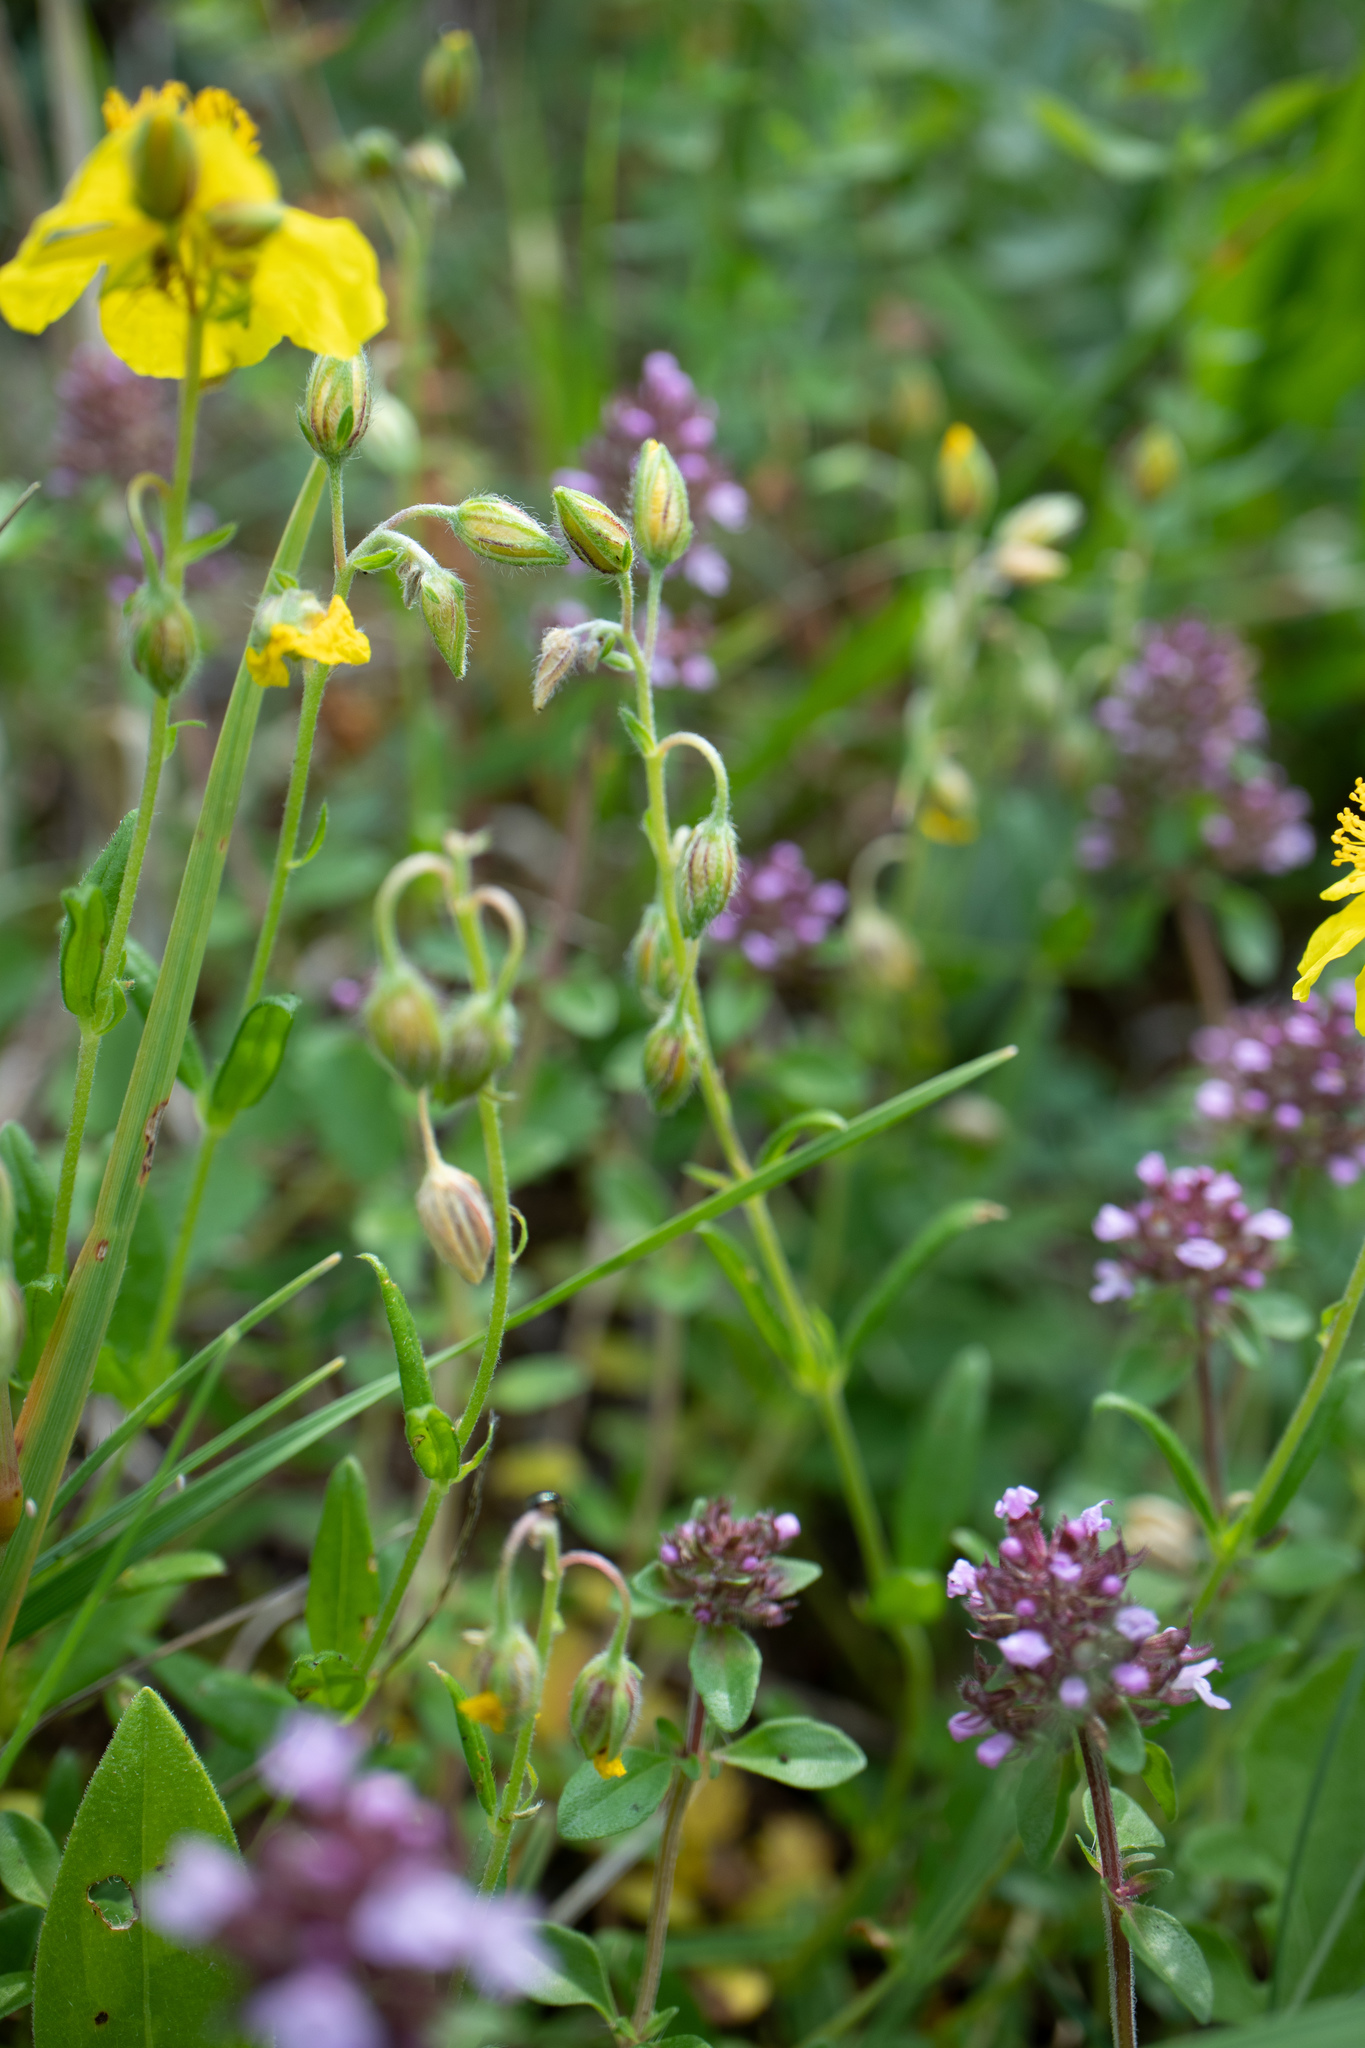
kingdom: Plantae
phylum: Tracheophyta
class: Magnoliopsida
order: Malvales
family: Cistaceae
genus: Helianthemum
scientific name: Helianthemum nummularium
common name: Common rock-rose
